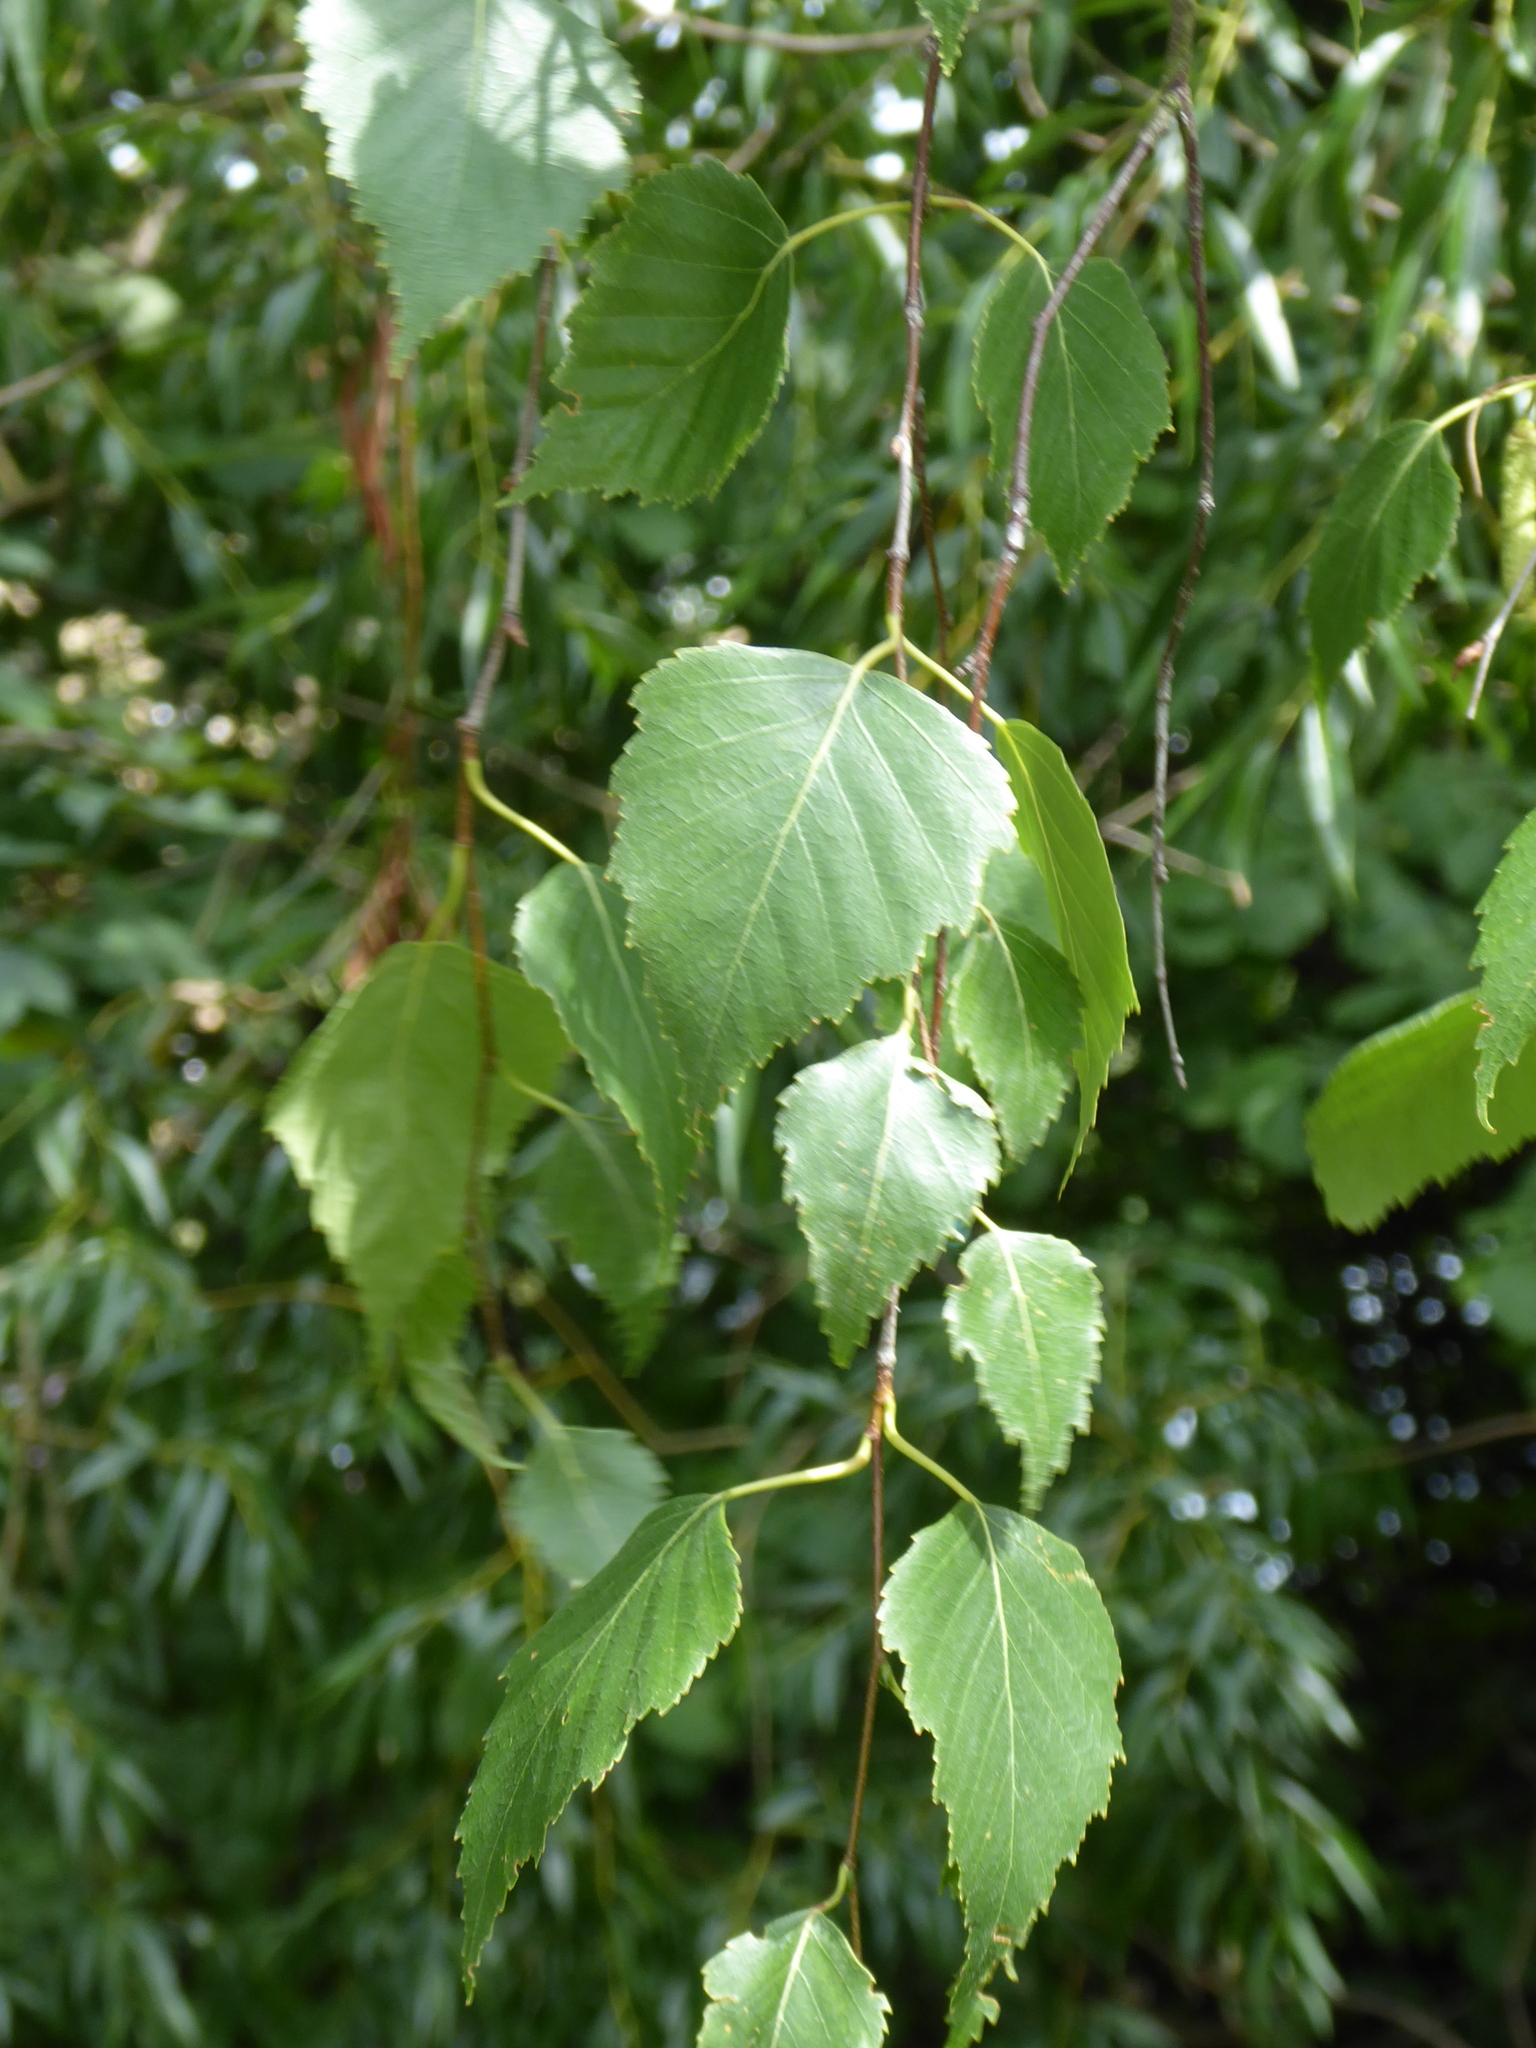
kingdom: Plantae
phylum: Tracheophyta
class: Magnoliopsida
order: Fagales
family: Betulaceae
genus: Betula
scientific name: Betula pendula
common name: Silver birch
